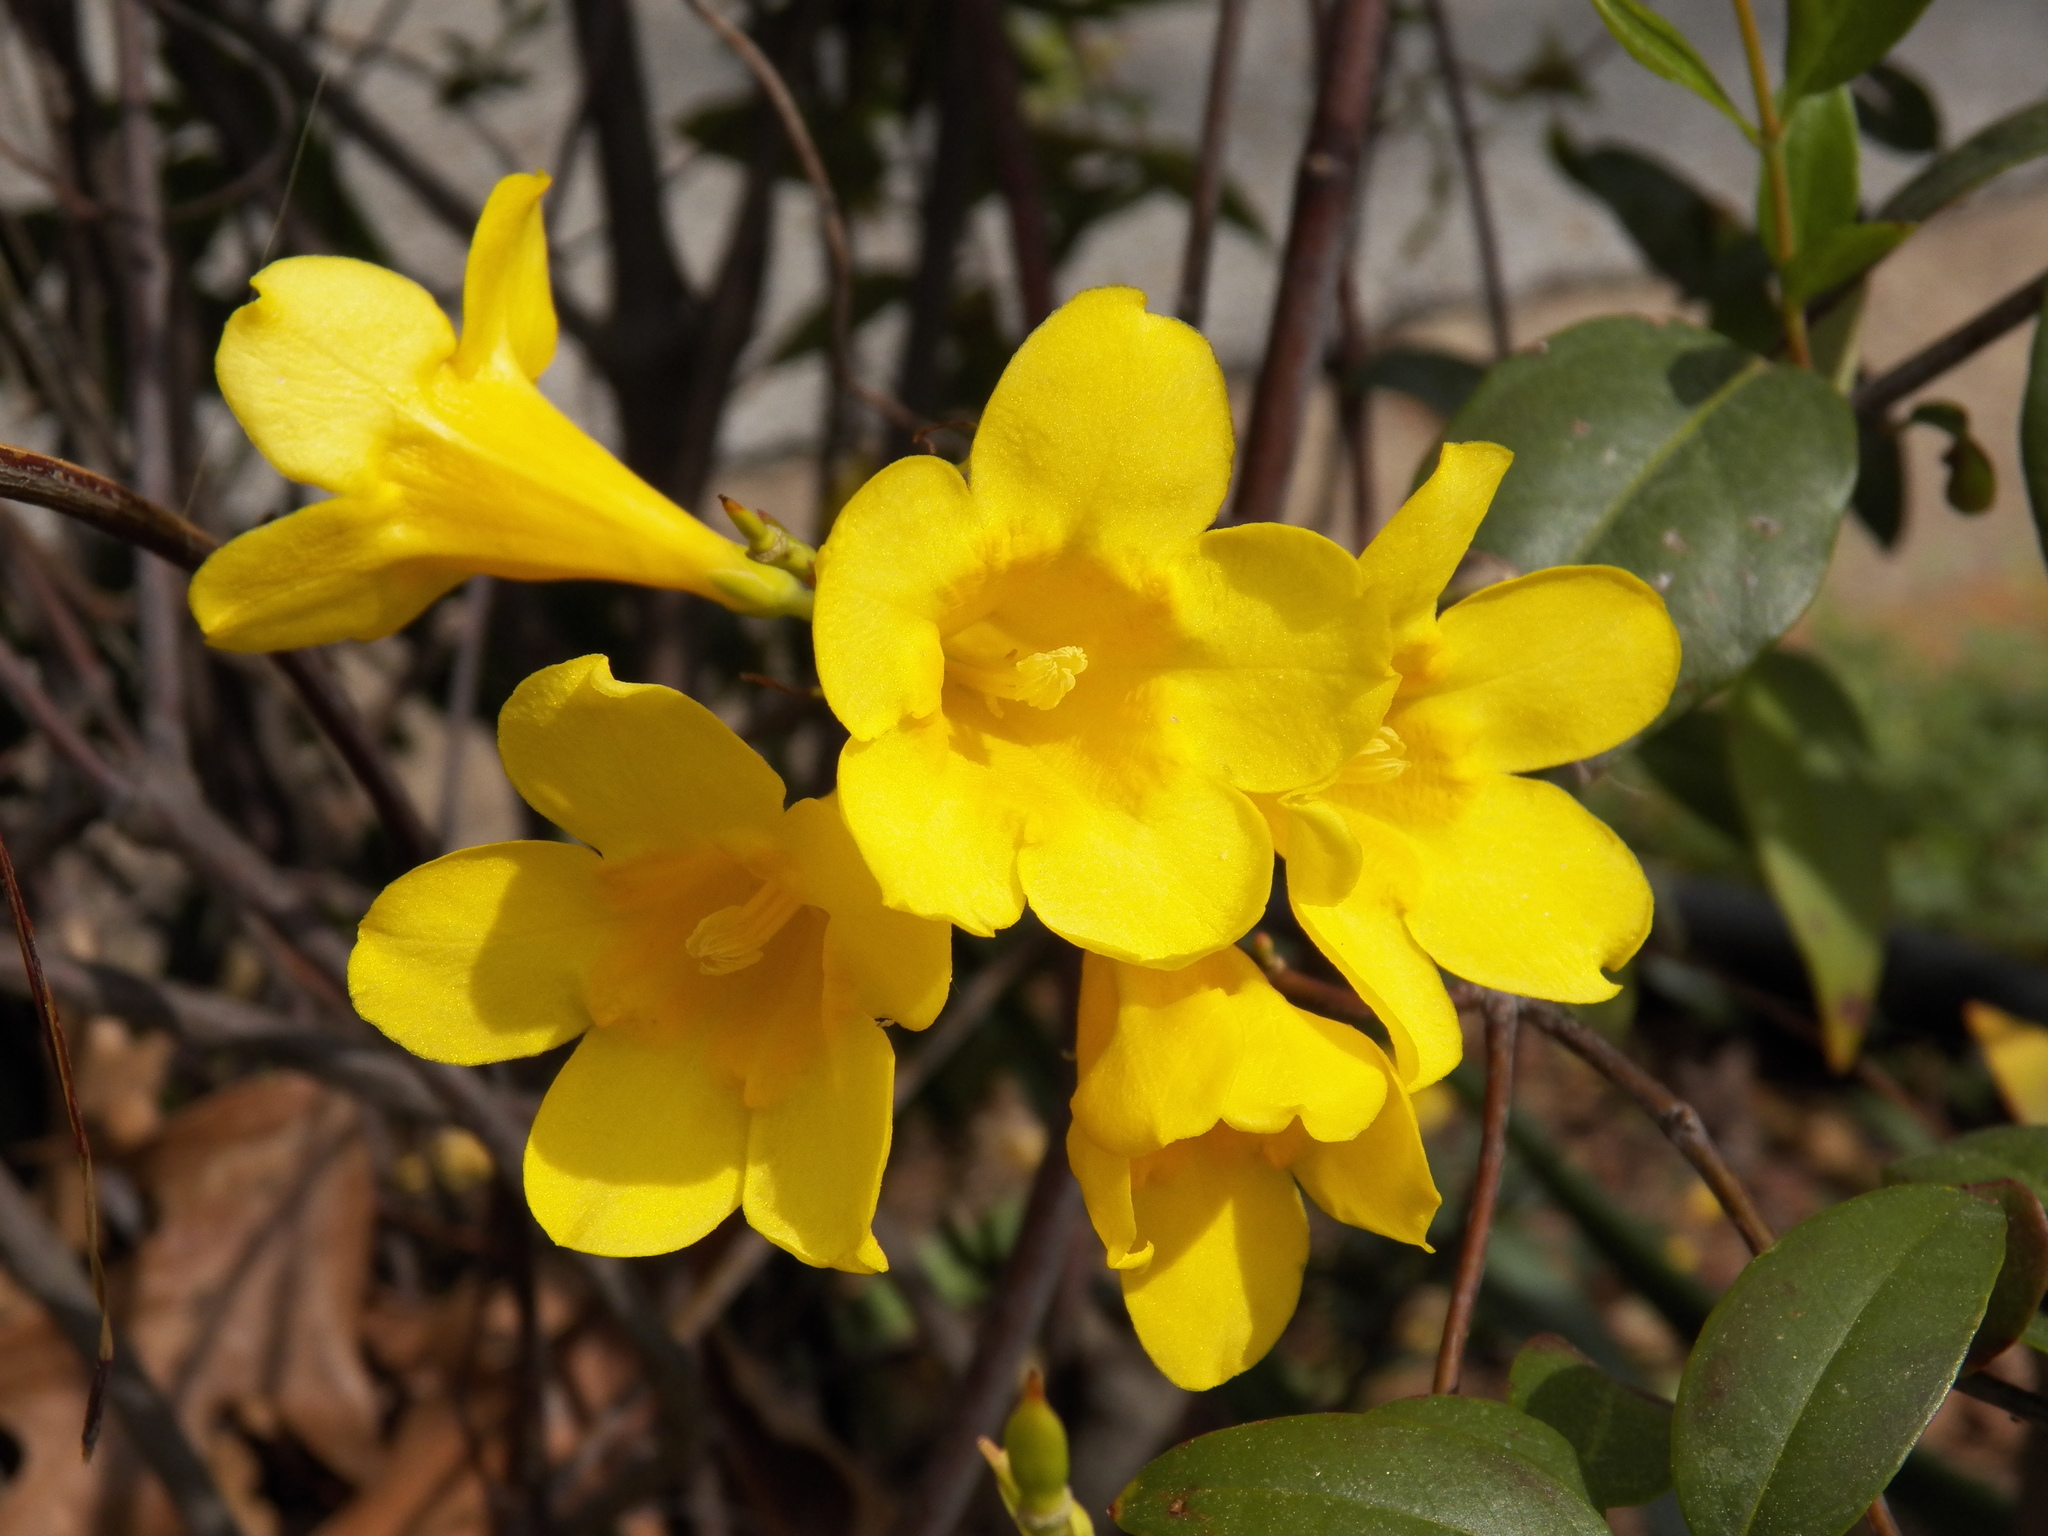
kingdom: Plantae
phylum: Tracheophyta
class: Magnoliopsida
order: Gentianales
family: Gelsemiaceae
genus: Gelsemium
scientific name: Gelsemium sempervirens
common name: Carolina-jasmine
